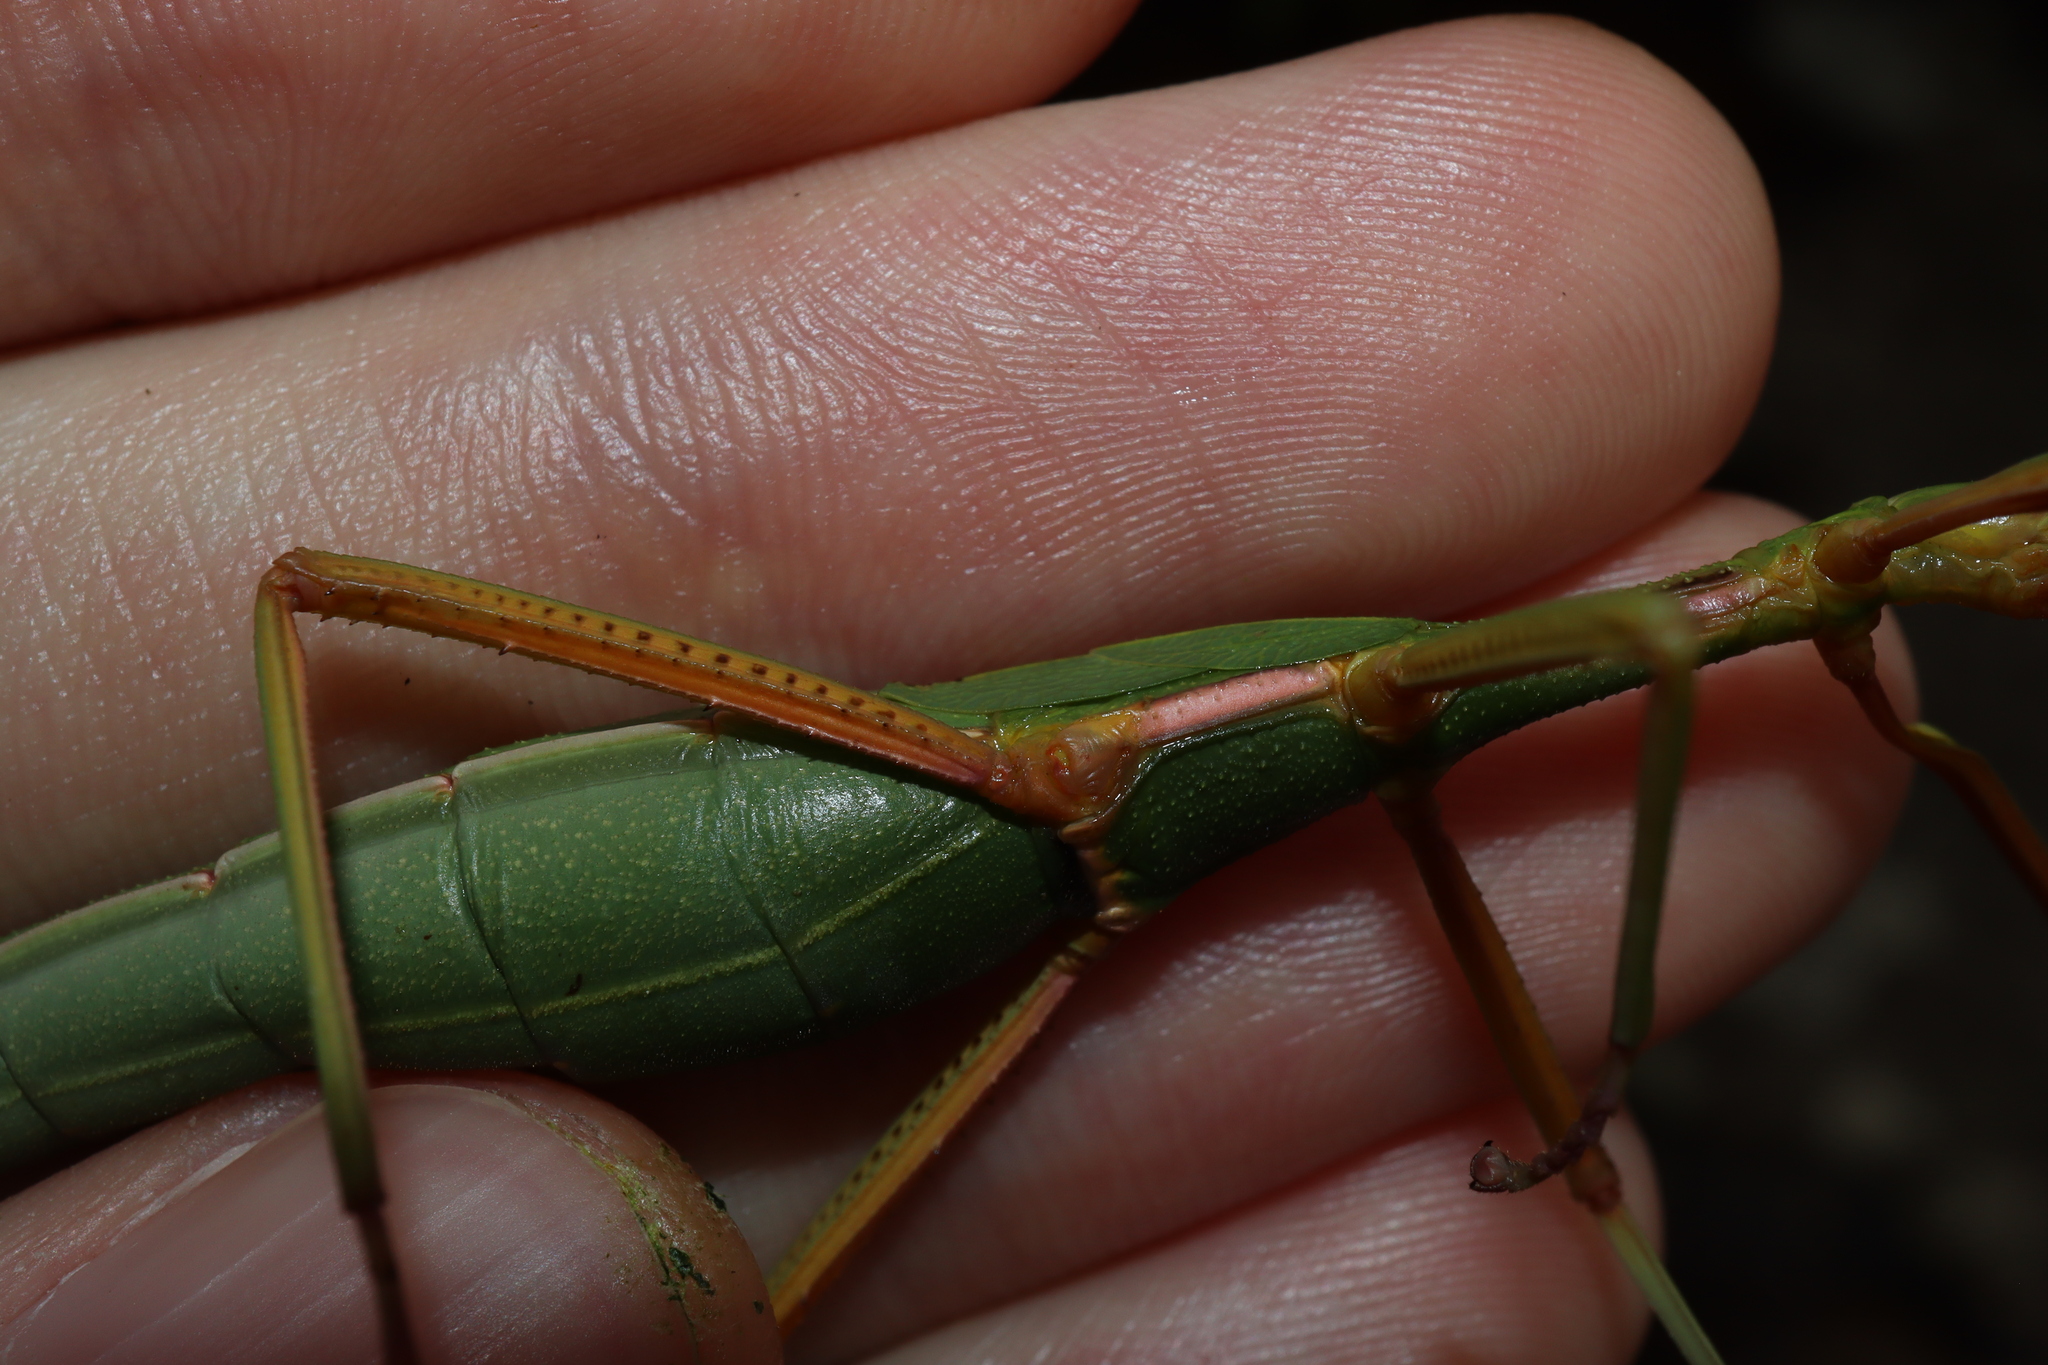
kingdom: Animalia
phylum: Arthropoda
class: Insecta
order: Phasmida
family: Phasmatidae
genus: Didymuria
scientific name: Didymuria violescens
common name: Spur-legged stick-insect
